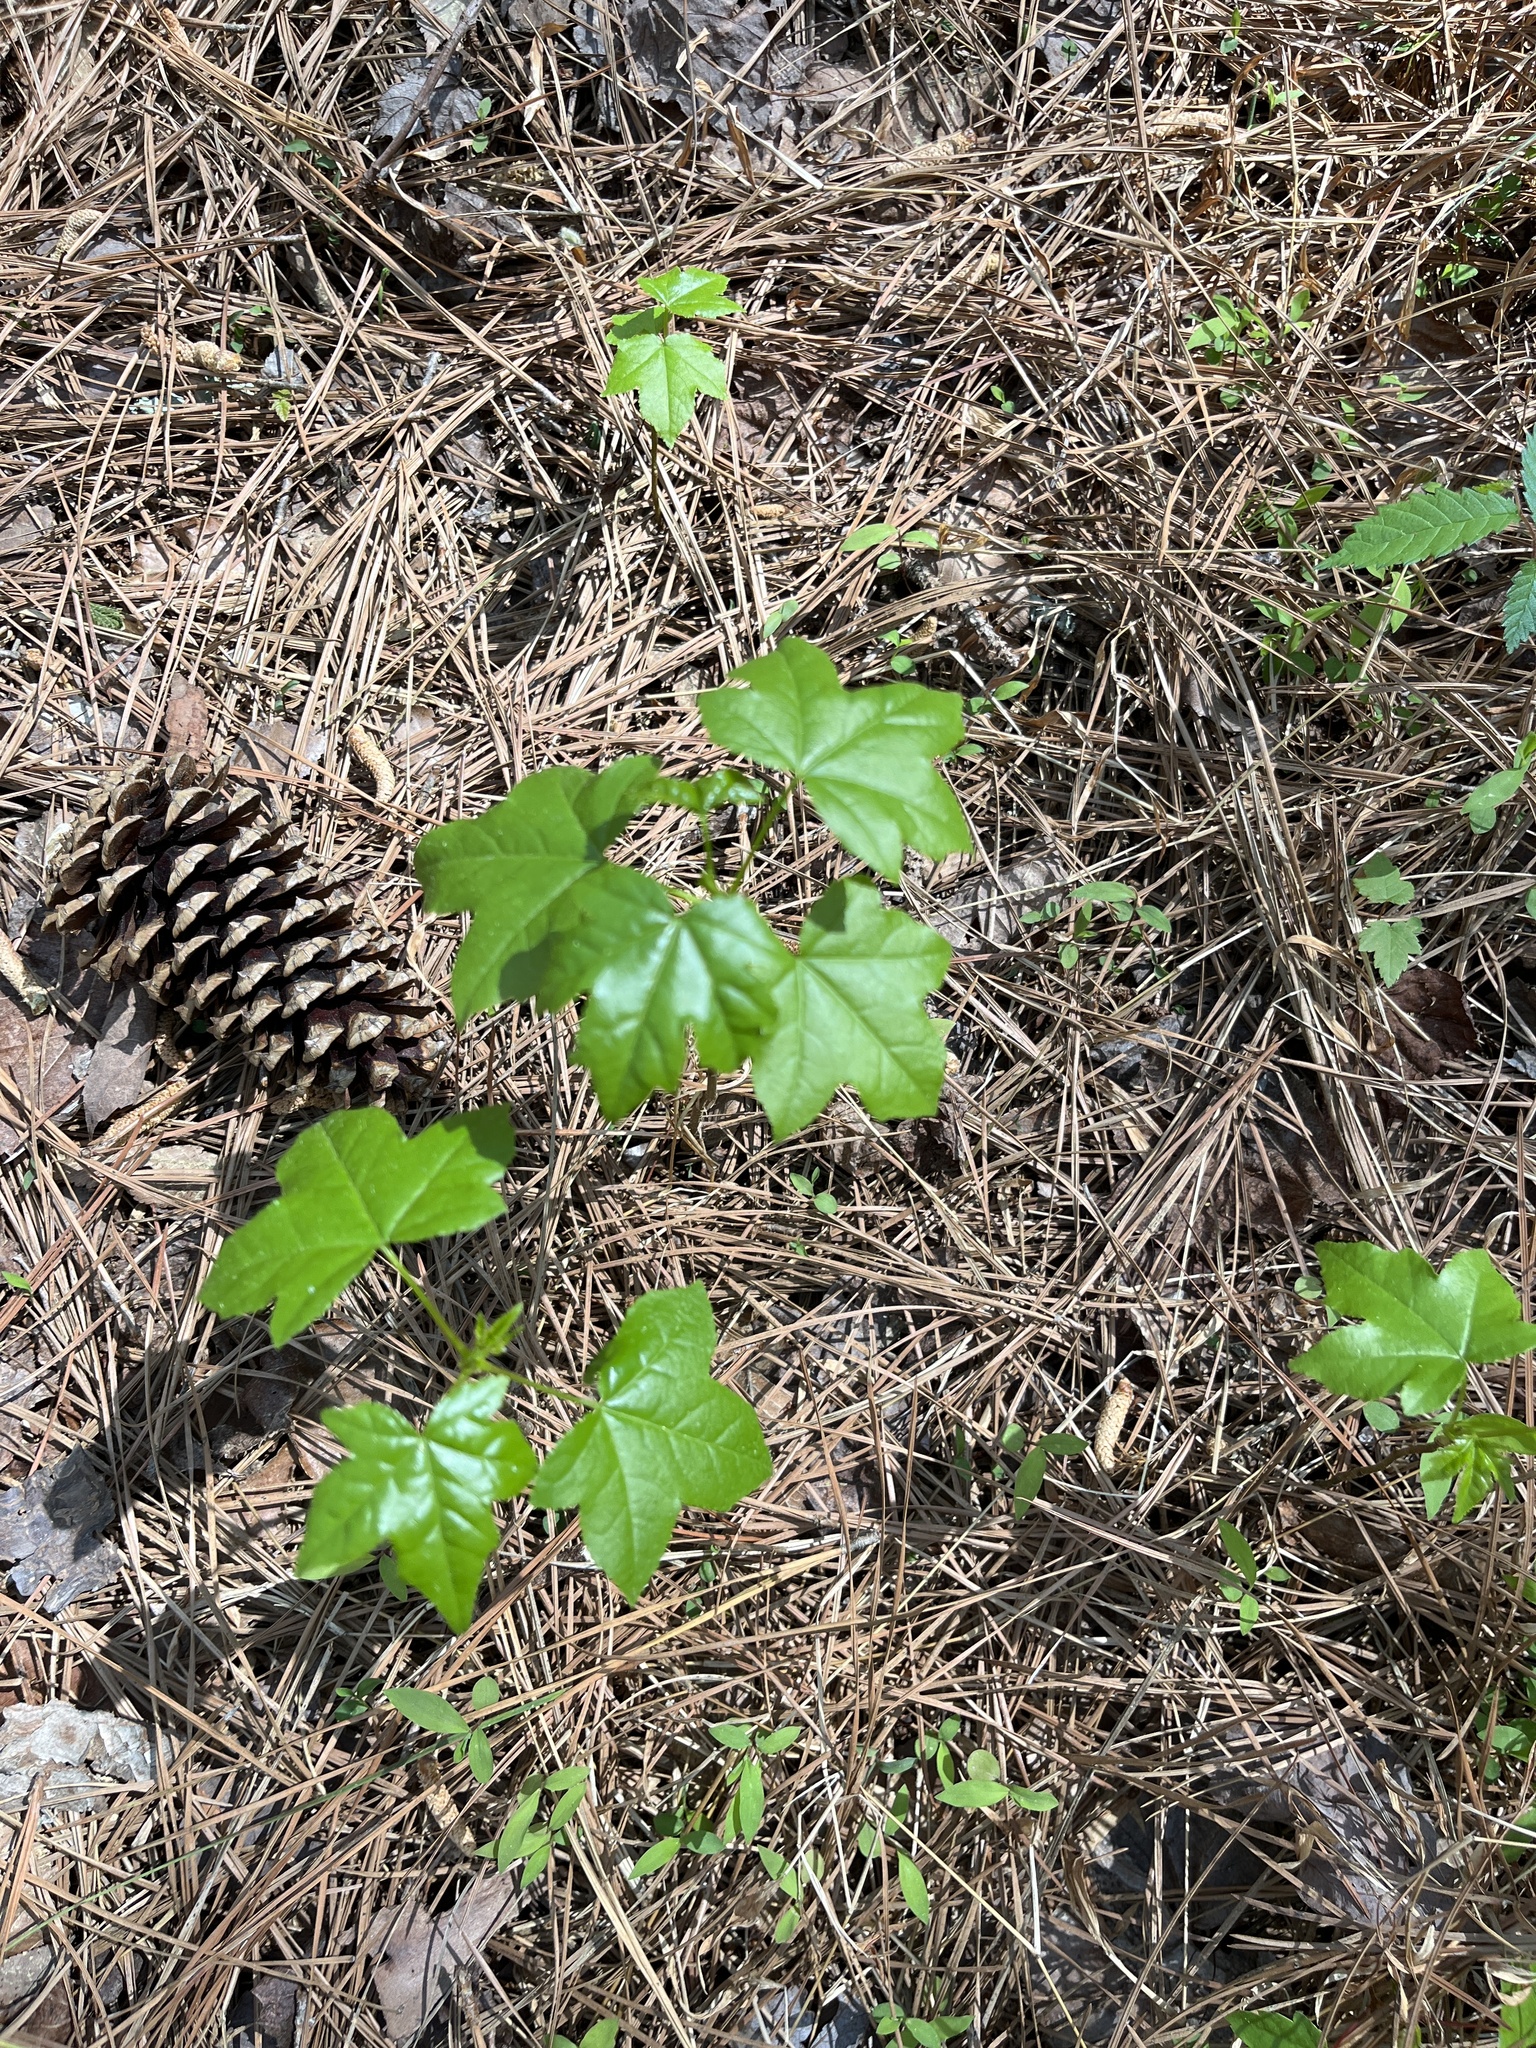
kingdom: Plantae
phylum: Tracheophyta
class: Magnoliopsida
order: Saxifragales
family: Altingiaceae
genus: Liquidambar
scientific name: Liquidambar styraciflua
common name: Sweet gum
